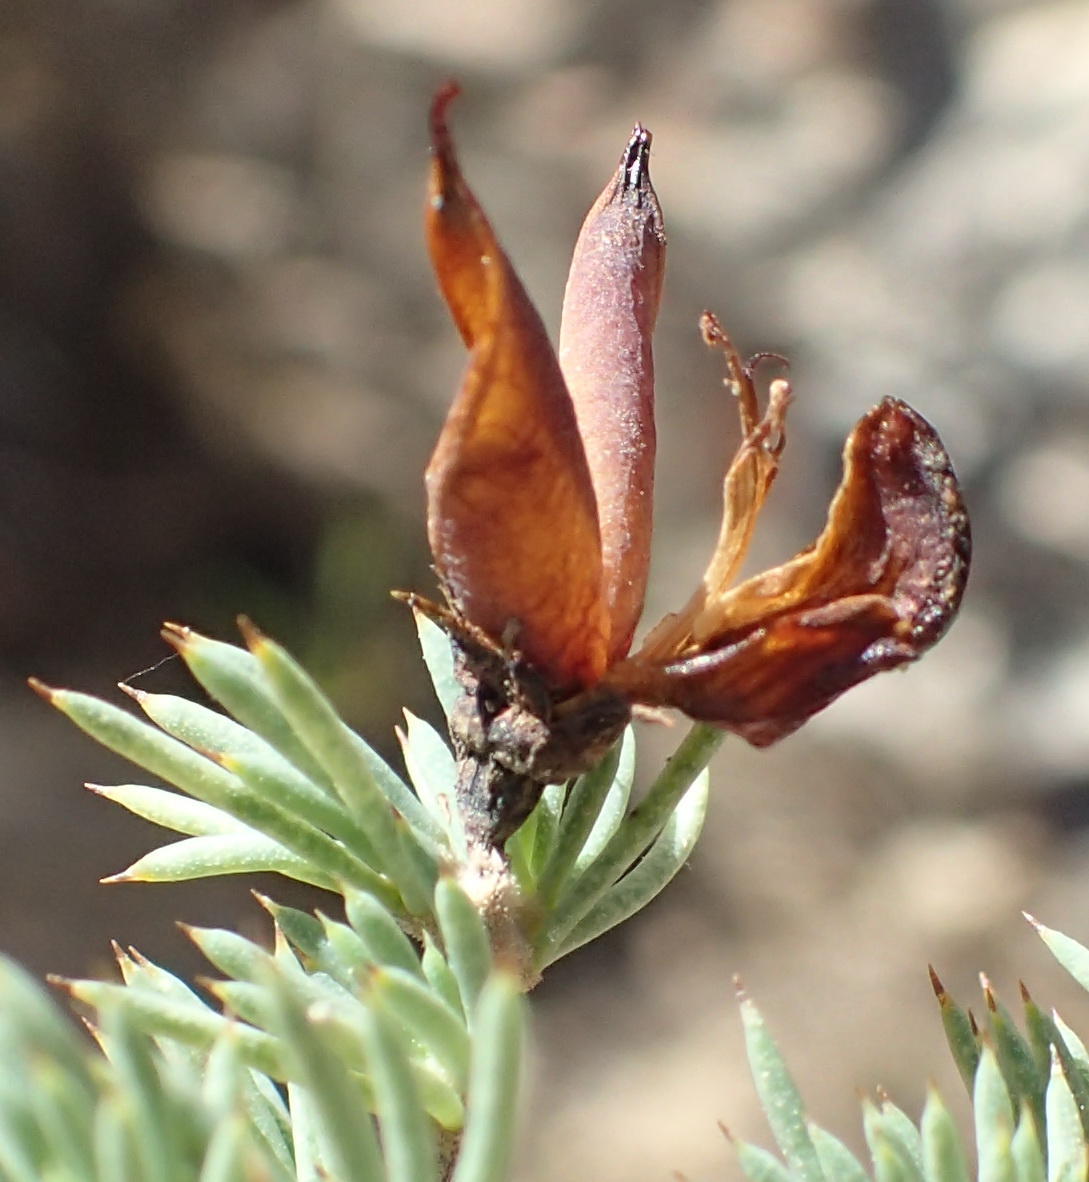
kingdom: Plantae
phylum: Tracheophyta
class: Magnoliopsida
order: Fabales
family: Fabaceae
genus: Aspalathus
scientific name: Aspalathus rigidifolia
